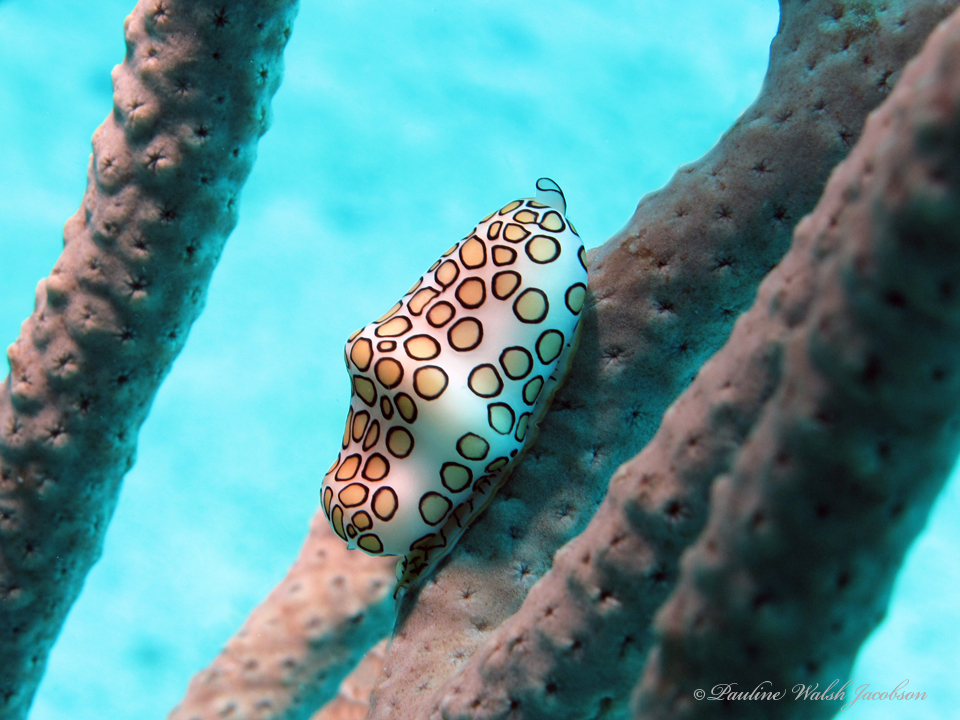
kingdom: Animalia
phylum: Mollusca
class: Gastropoda
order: Littorinimorpha
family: Ovulidae
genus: Cyphoma
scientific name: Cyphoma gibbosum
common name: Flamingo tongue
